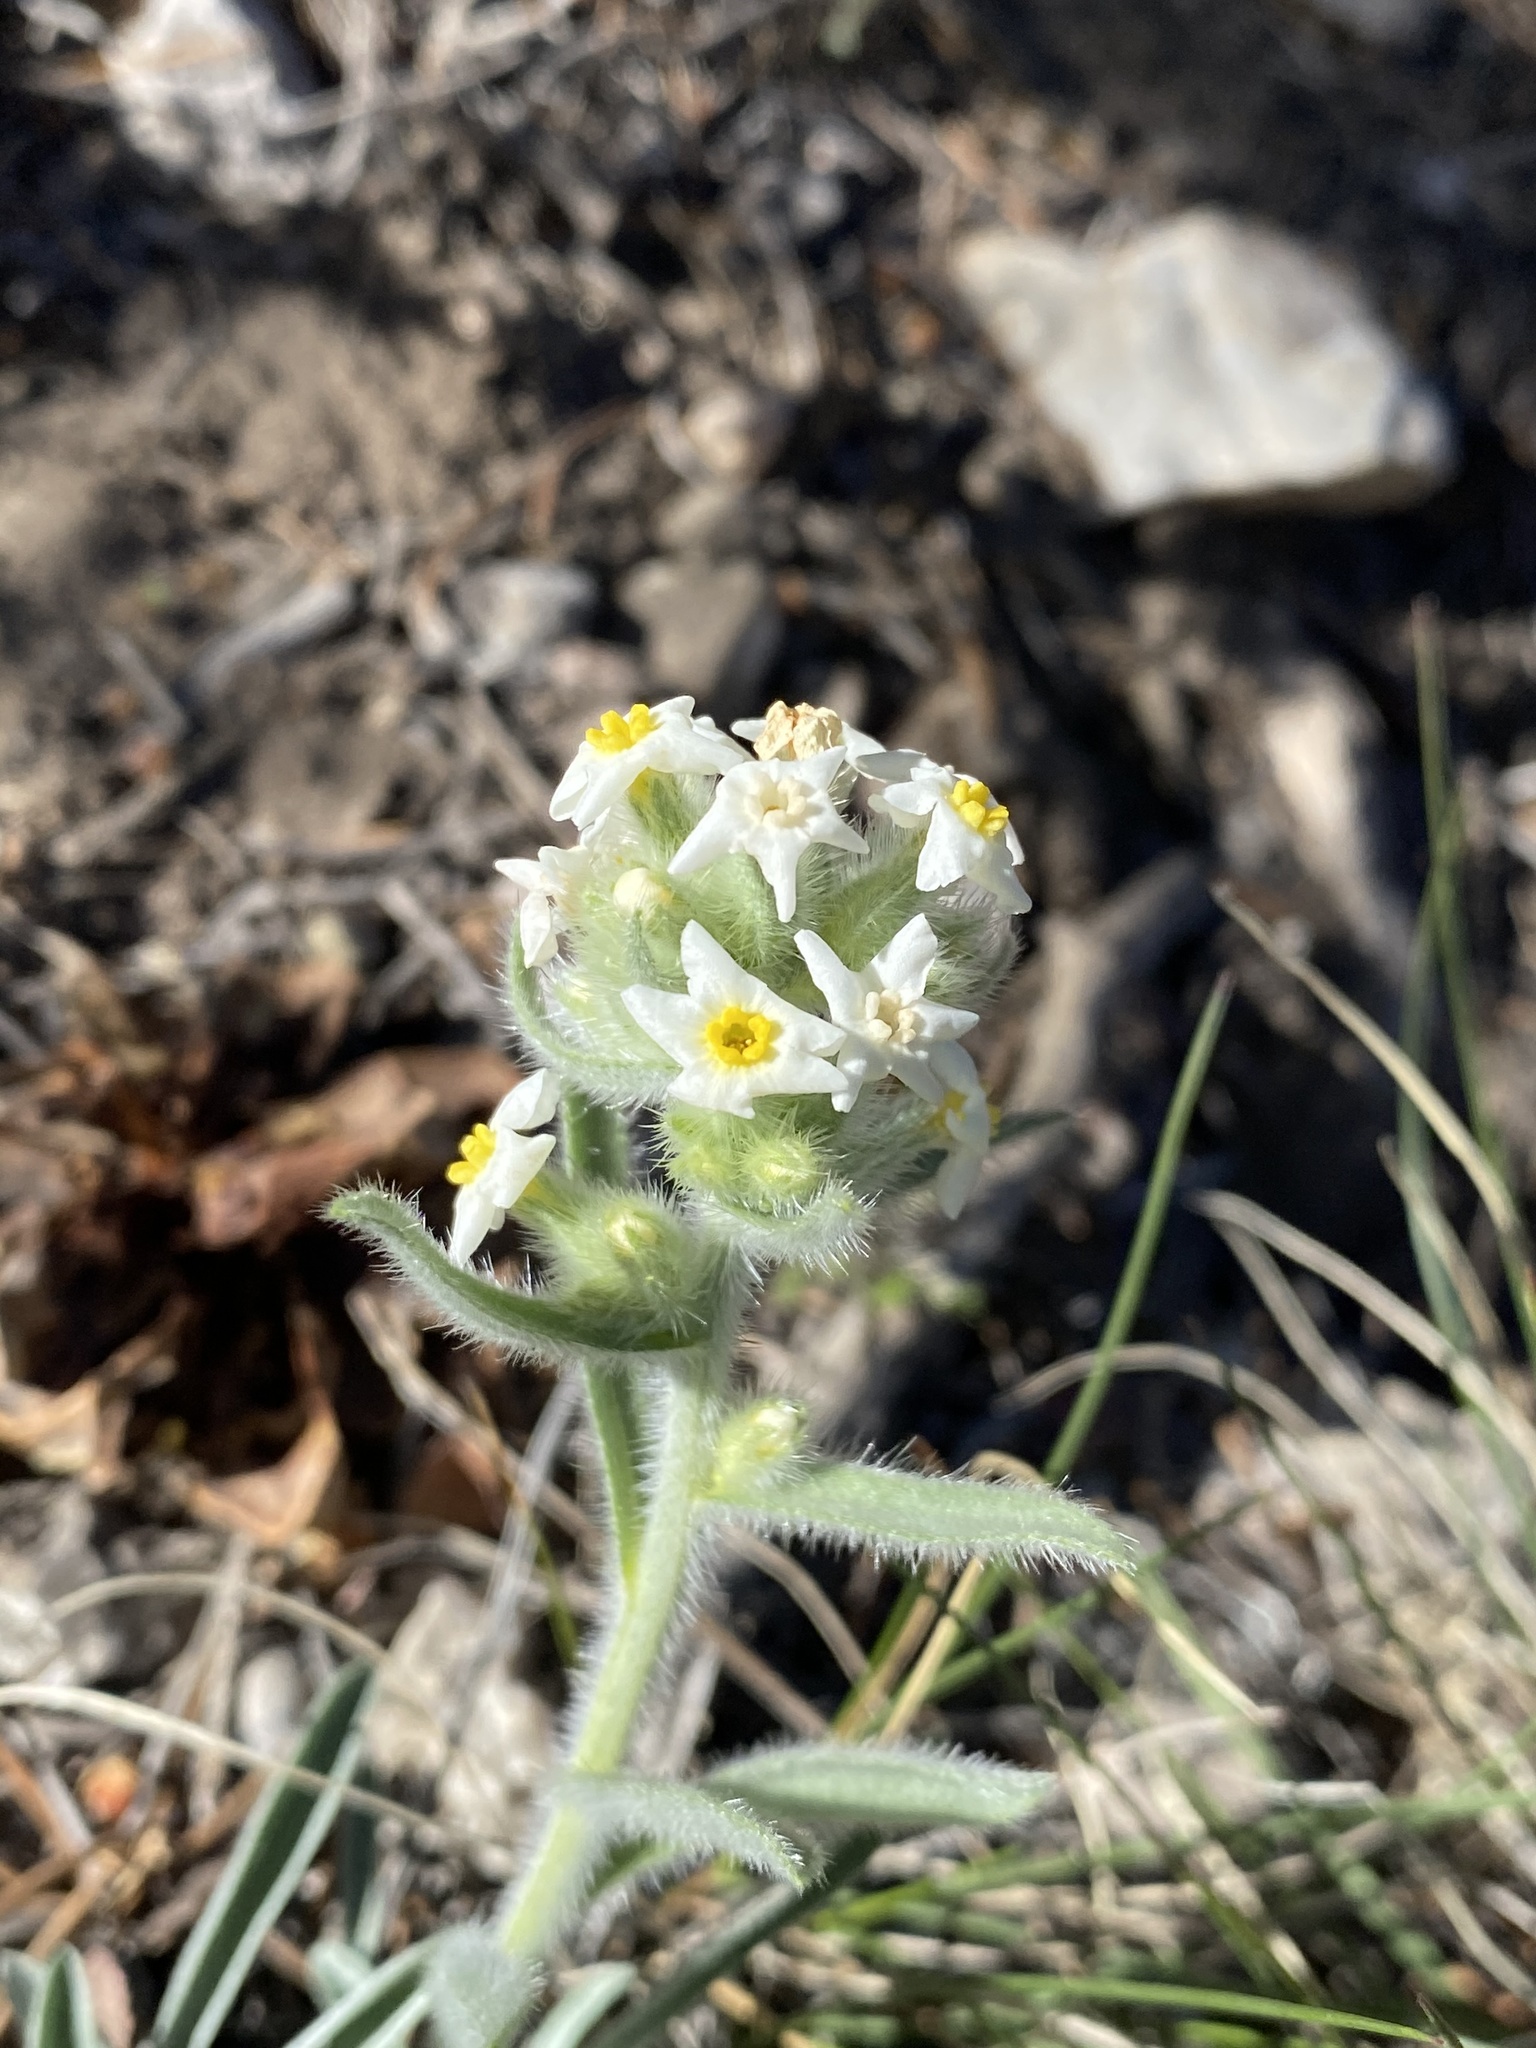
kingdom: Plantae
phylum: Tracheophyta
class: Magnoliopsida
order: Boraginales
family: Boraginaceae
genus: Oreocarya
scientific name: Oreocarya flavoculata
